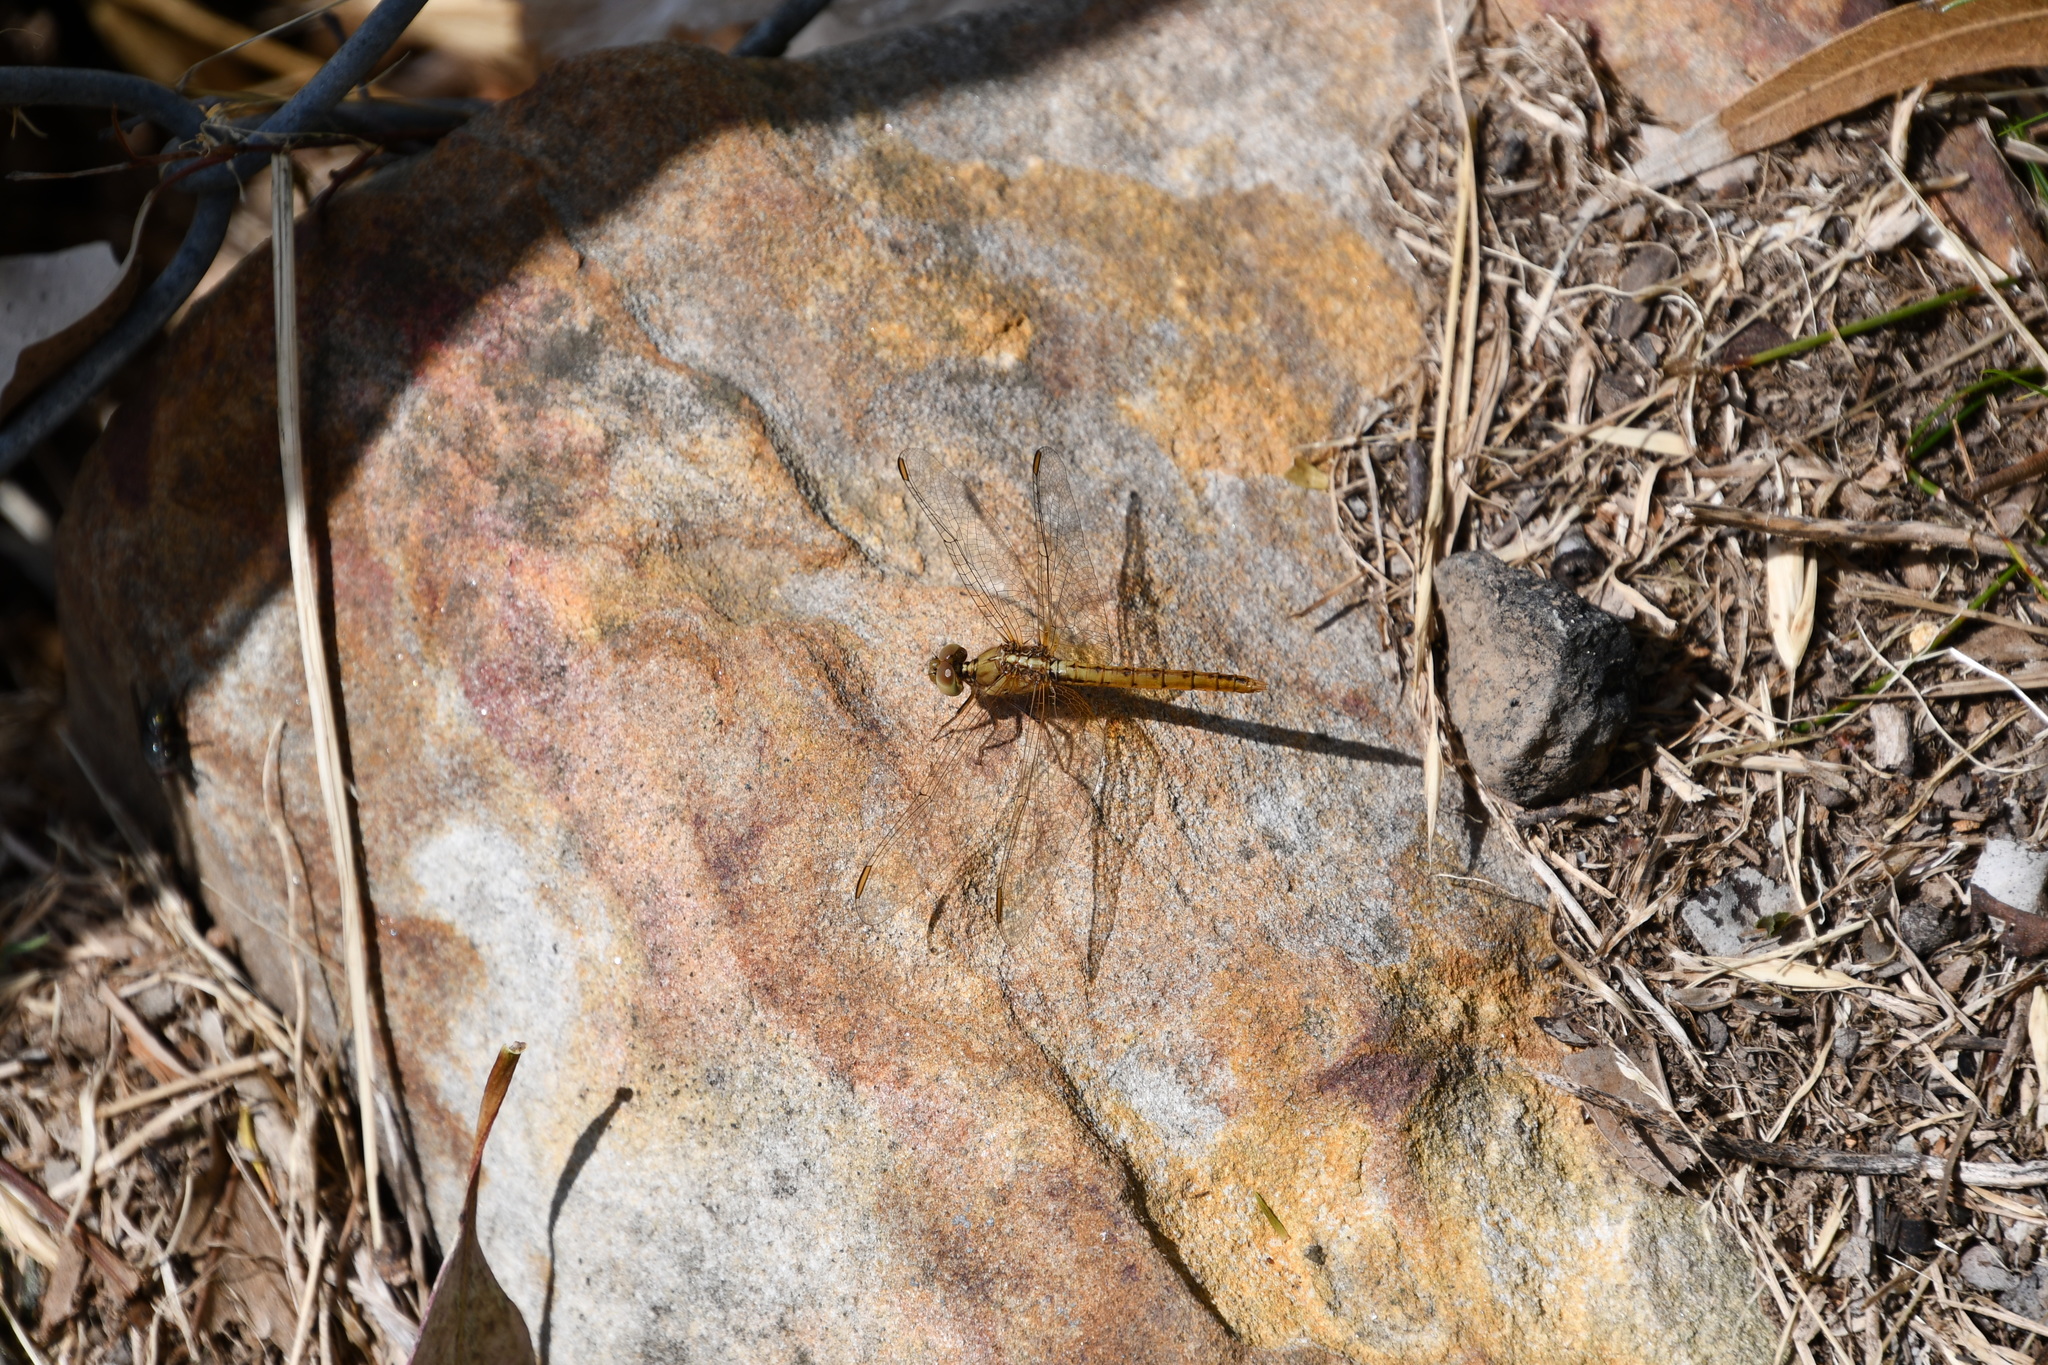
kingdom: Animalia
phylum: Arthropoda
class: Insecta
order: Odonata
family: Libellulidae
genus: Diplacodes
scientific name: Diplacodes haematodes
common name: Scarlet percher
